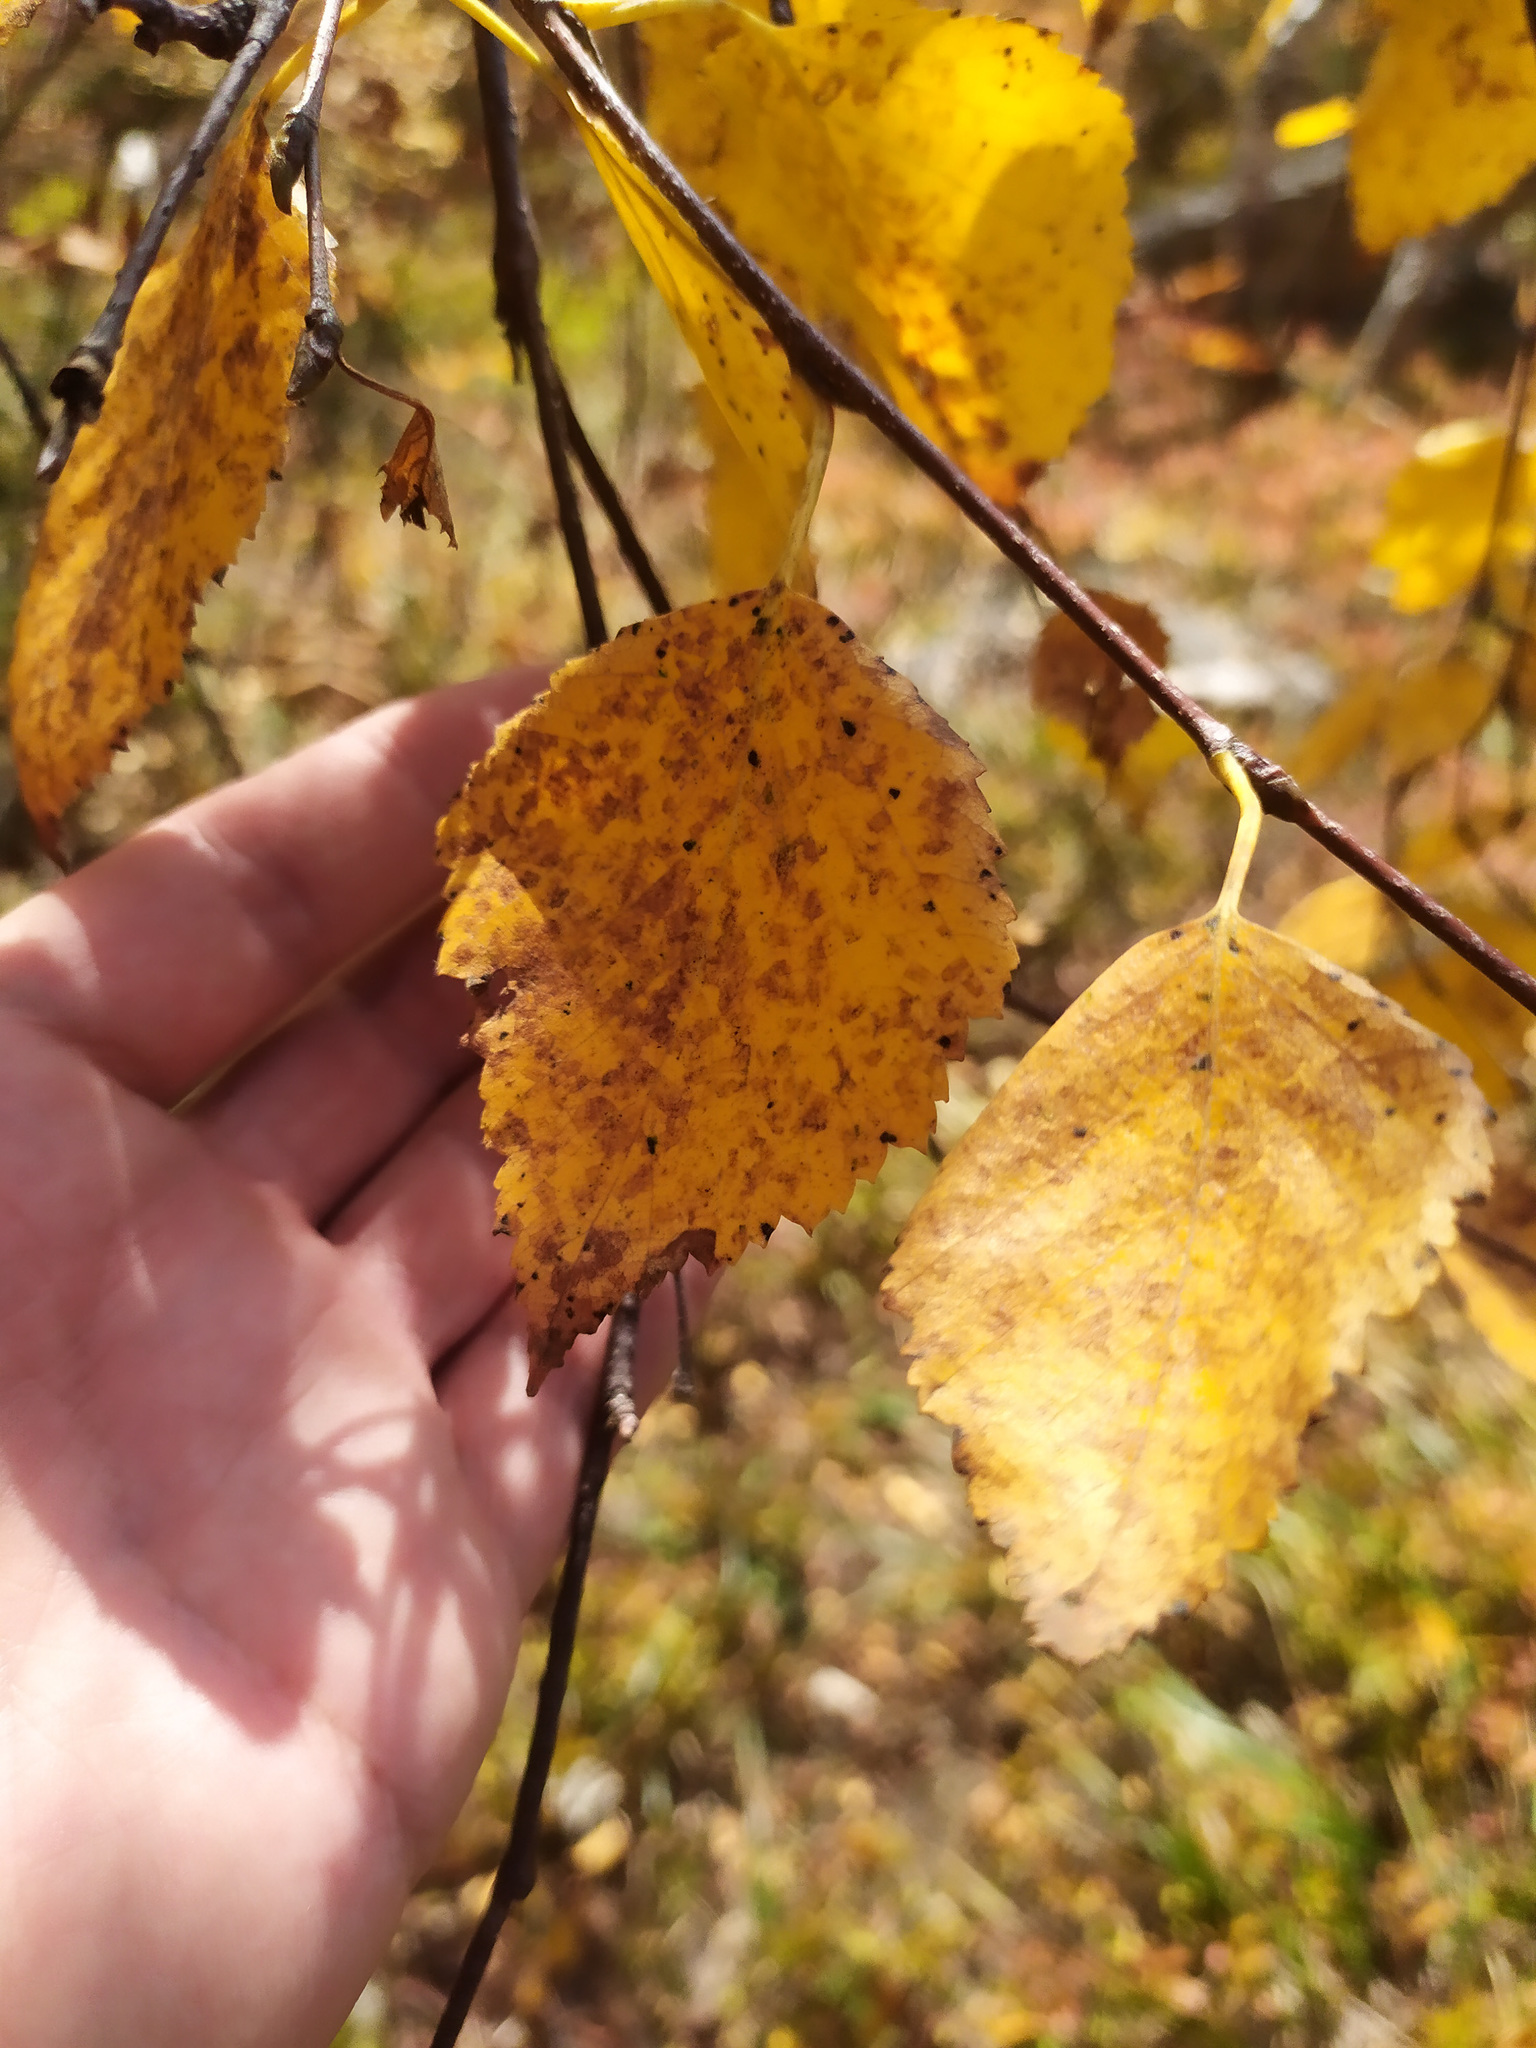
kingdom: Plantae
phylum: Tracheophyta
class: Magnoliopsida
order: Fagales
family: Betulaceae
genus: Betula
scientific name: Betula pendula
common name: Silver birch
